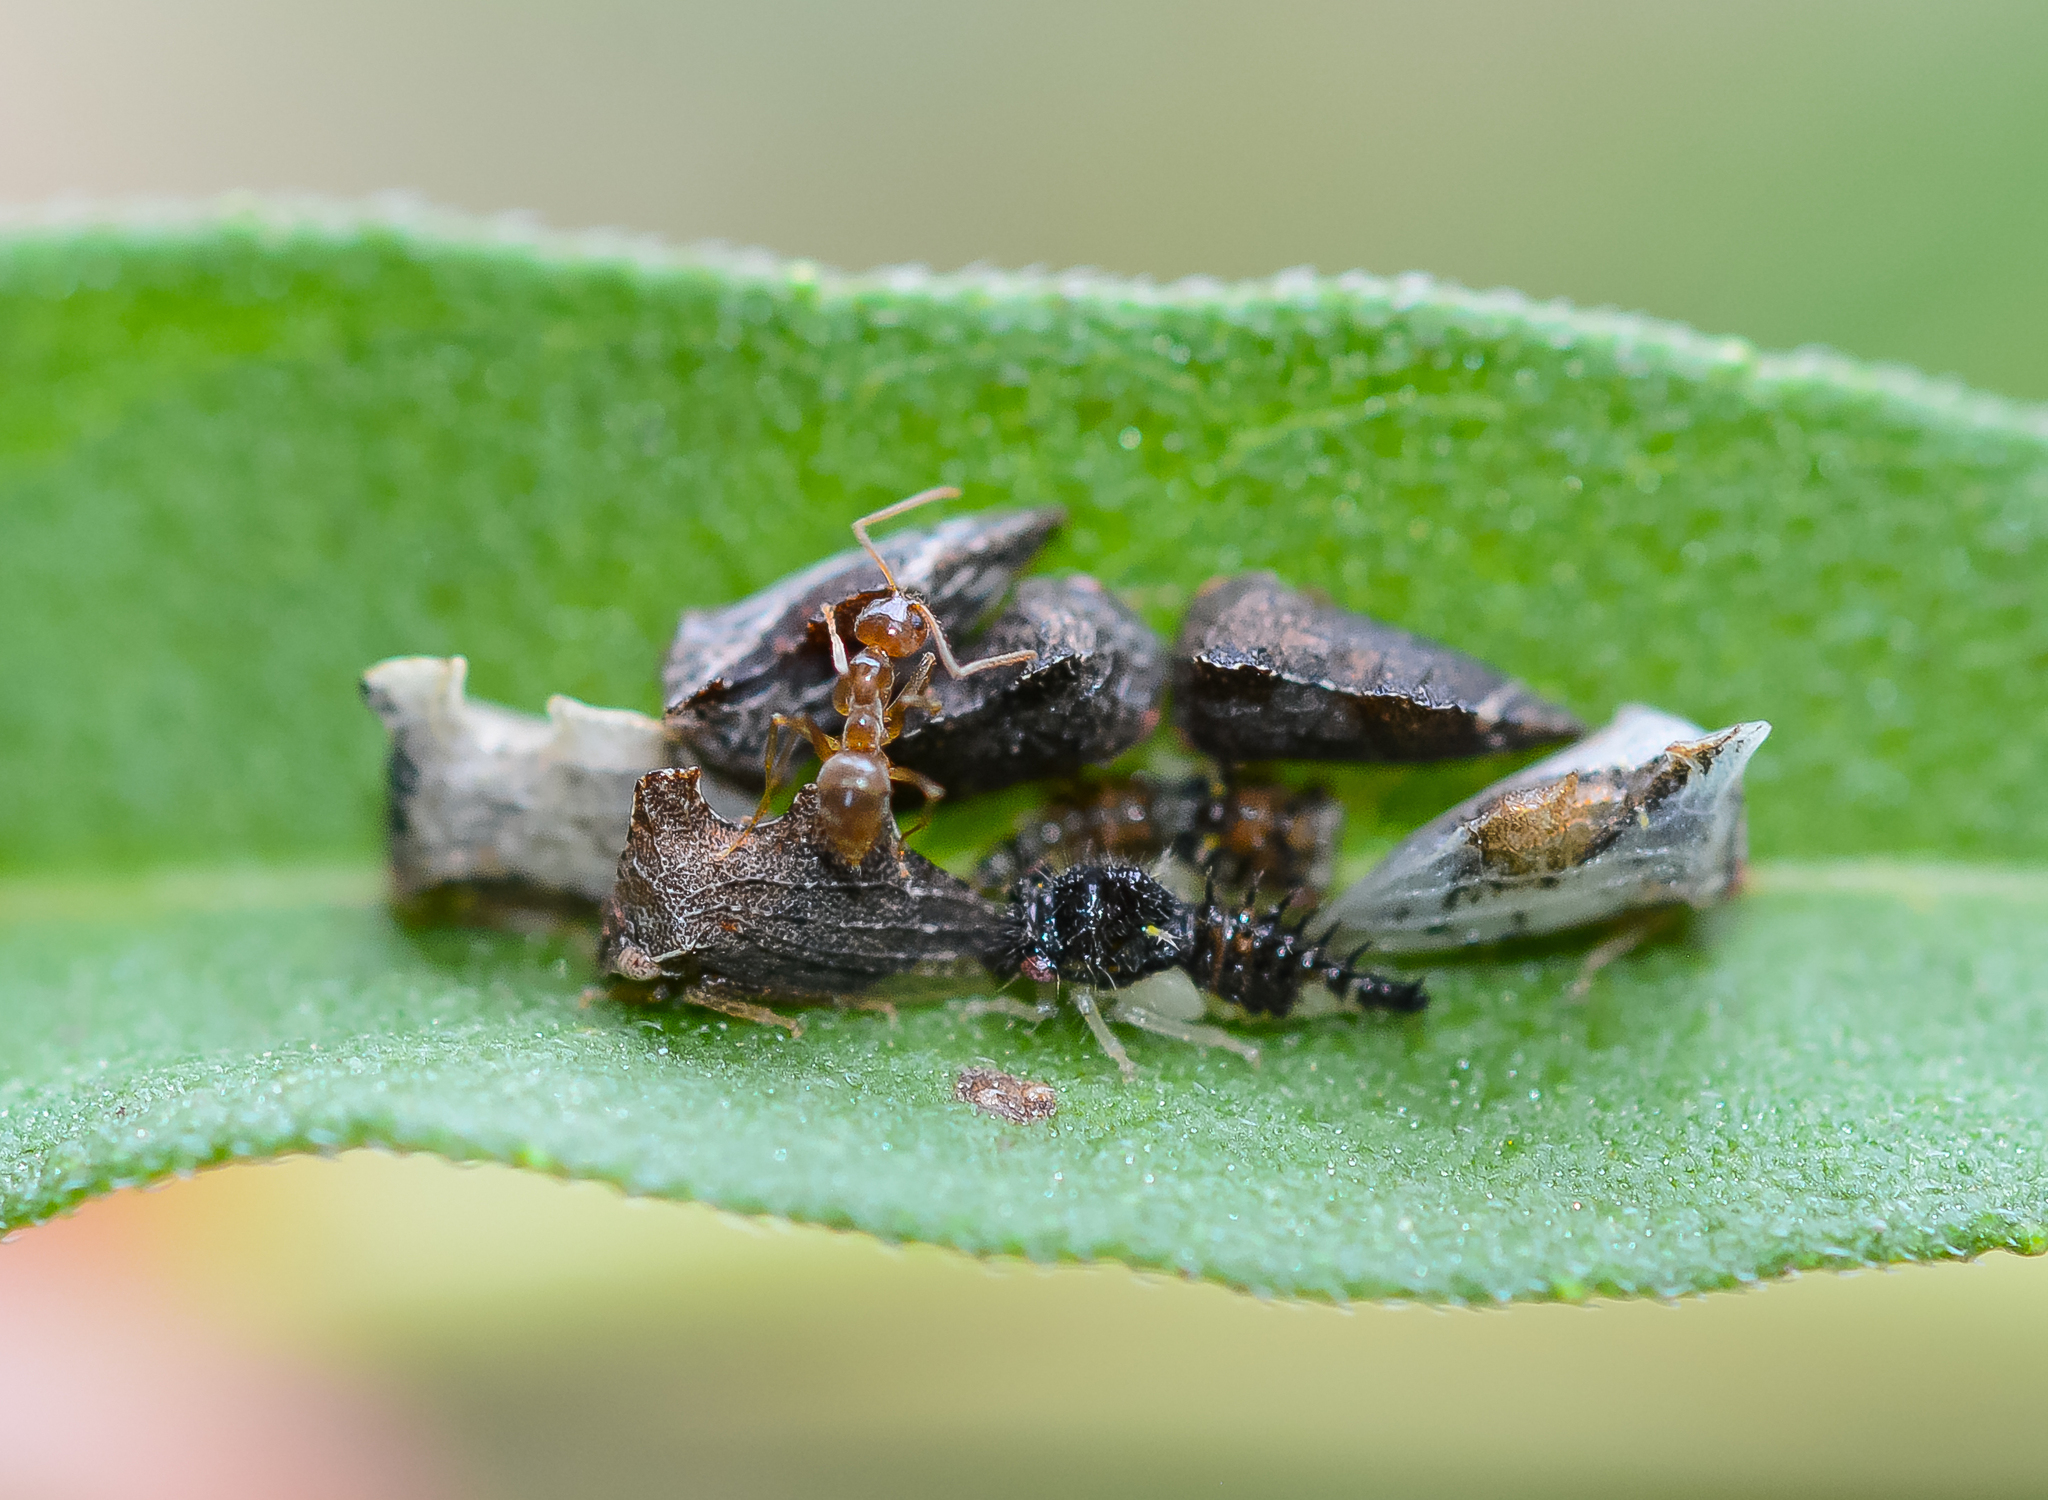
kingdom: Animalia
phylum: Arthropoda
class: Insecta
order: Hemiptera
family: Membracidae
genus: Entylia
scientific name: Entylia carinata
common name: Keeled treehopper
